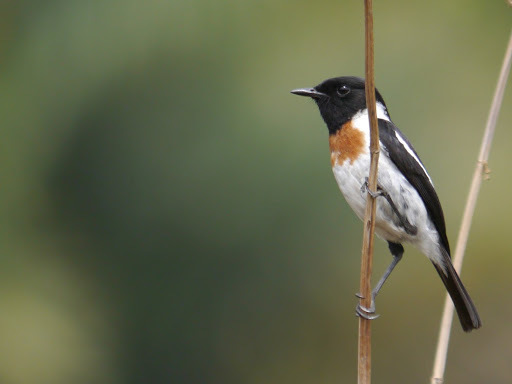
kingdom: Animalia
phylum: Chordata
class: Aves
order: Passeriformes
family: Muscicapidae
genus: Saxicola
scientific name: Saxicola torquatus
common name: African stonechat
